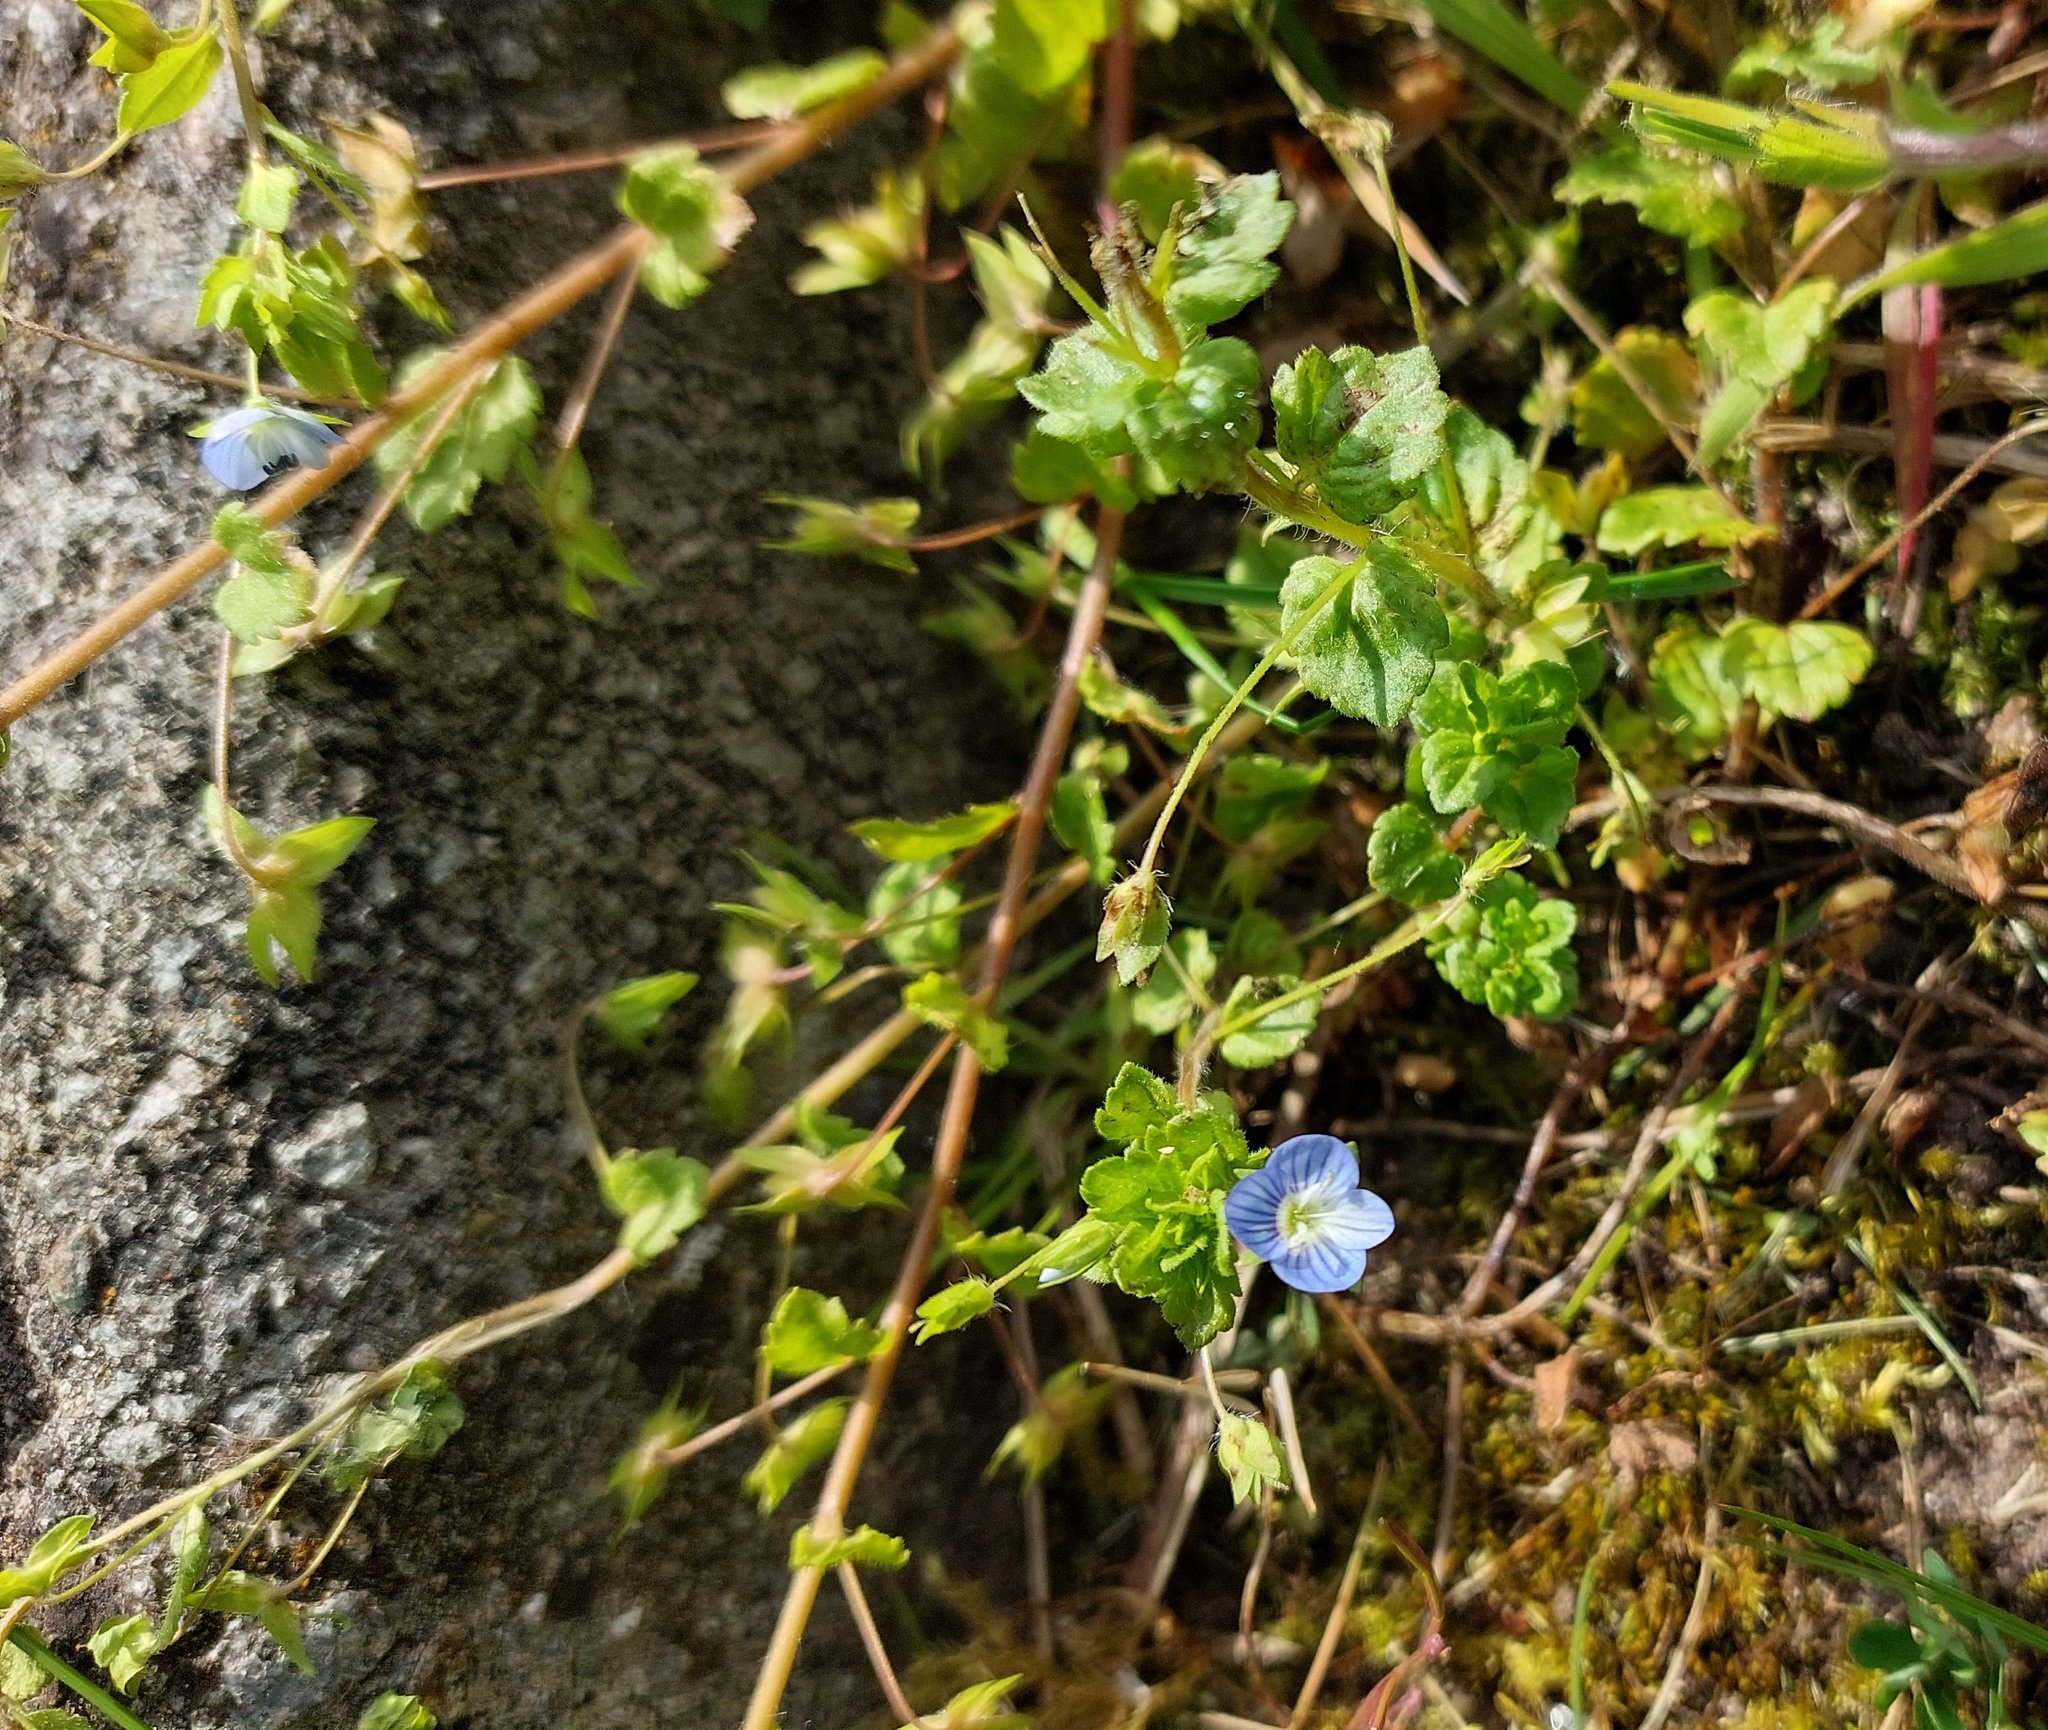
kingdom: Plantae
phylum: Tracheophyta
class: Magnoliopsida
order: Lamiales
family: Plantaginaceae
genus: Veronica
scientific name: Veronica persica
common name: Common field-speedwell
